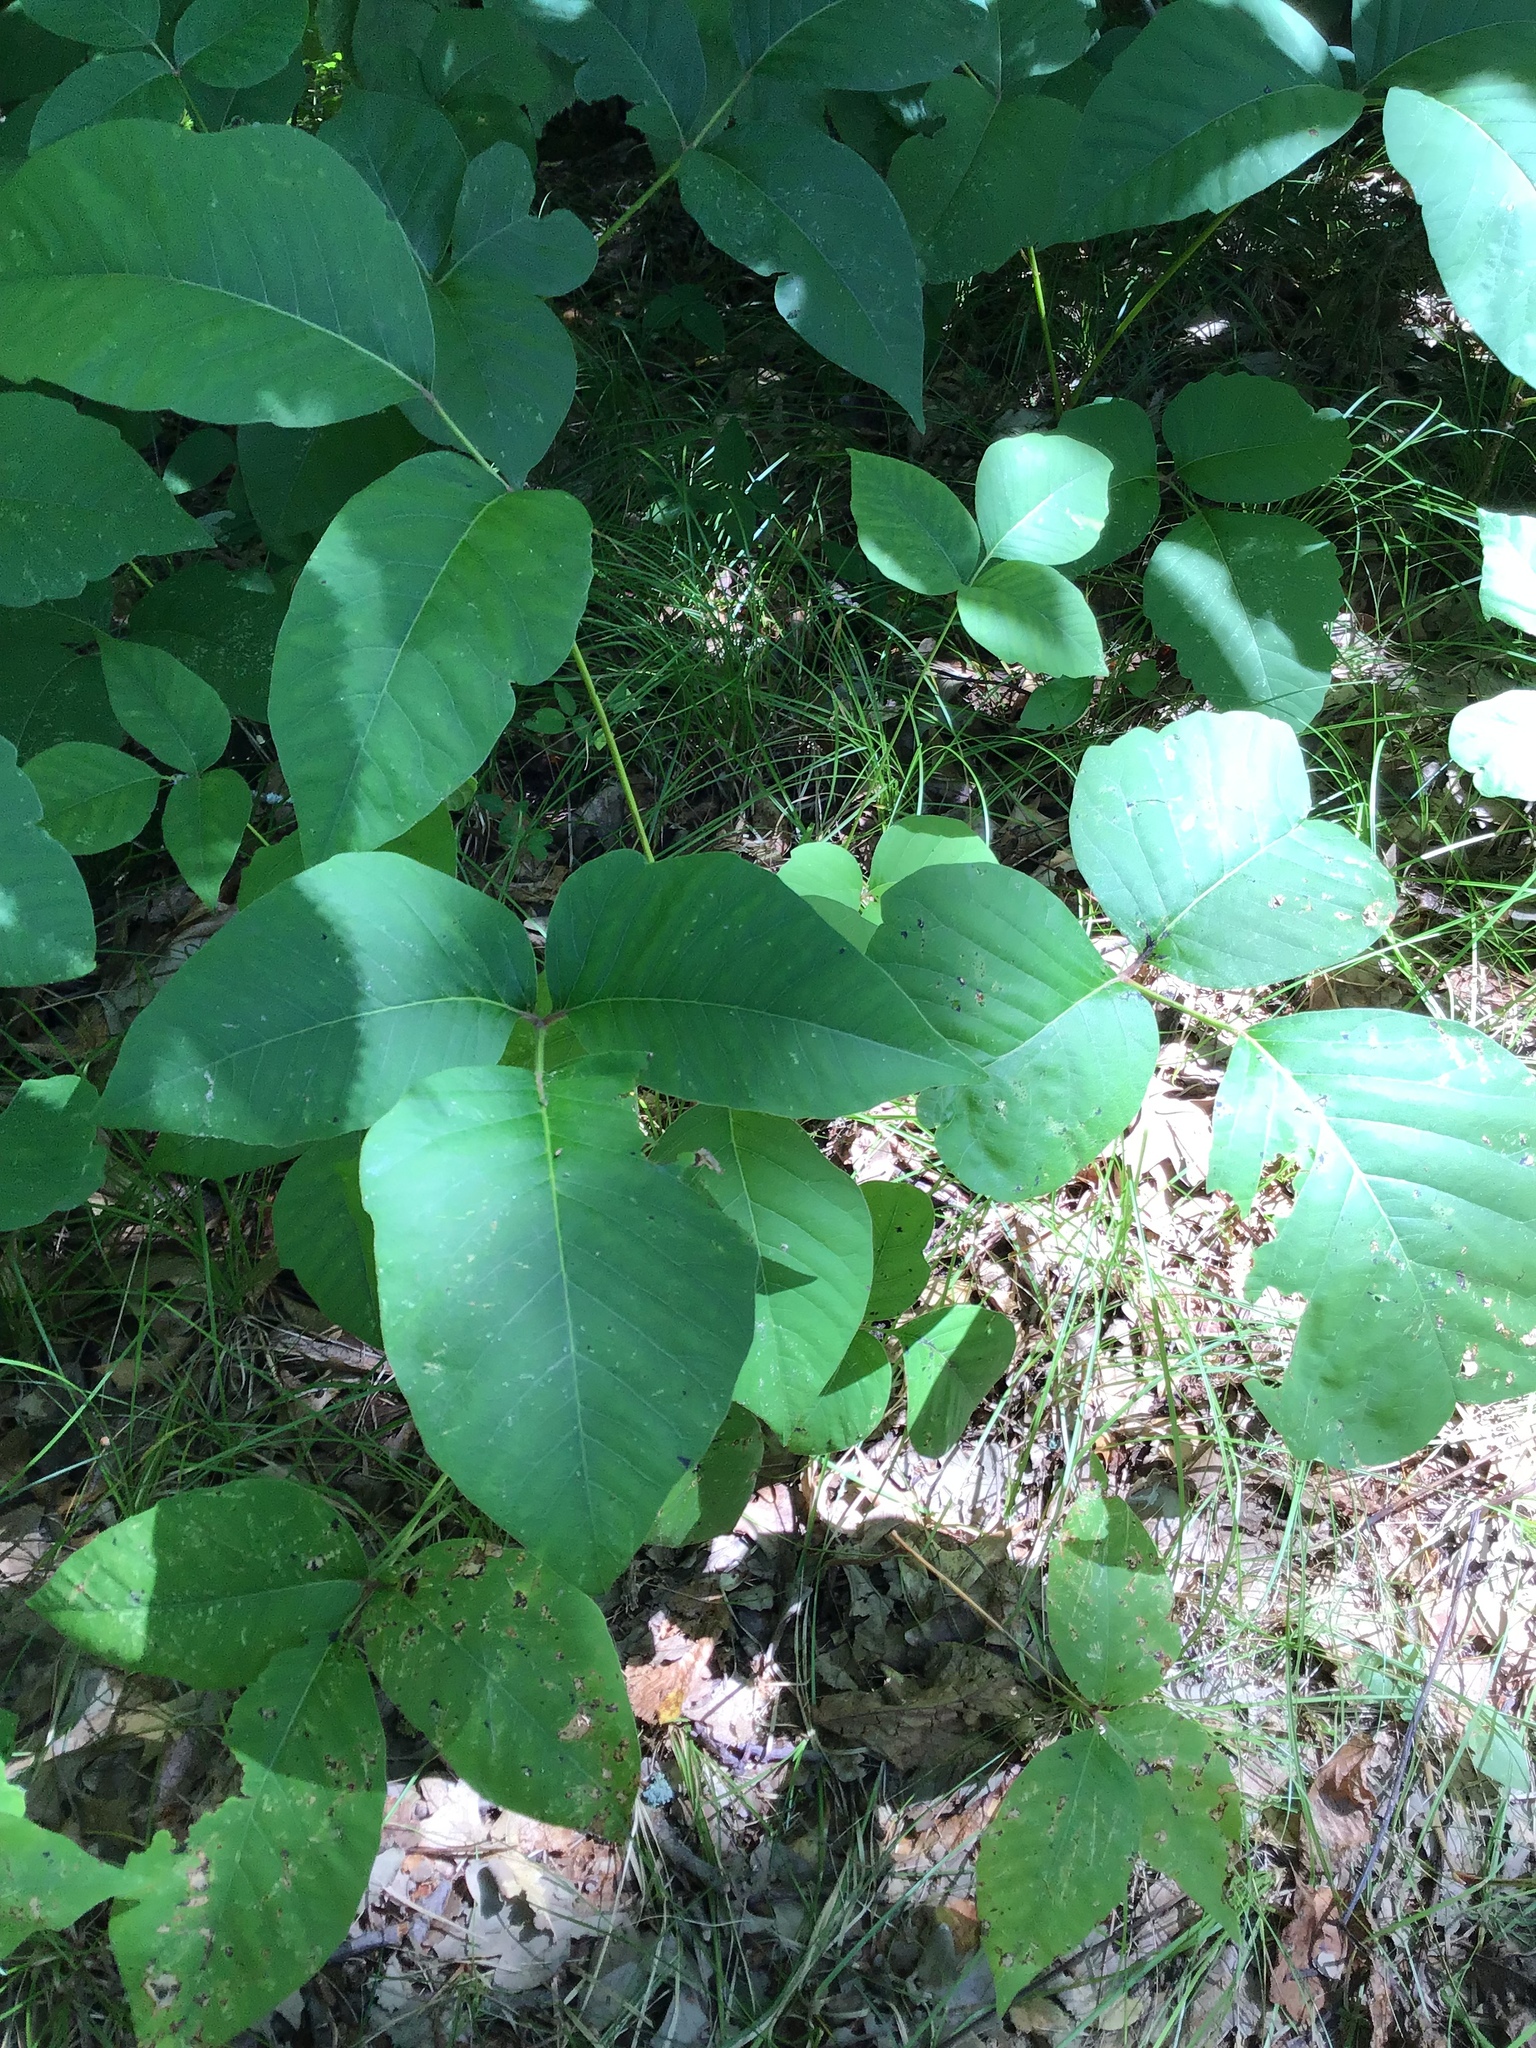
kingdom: Plantae
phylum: Tracheophyta
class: Magnoliopsida
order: Sapindales
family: Anacardiaceae
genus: Toxicodendron
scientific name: Toxicodendron rydbergii
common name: Rydberg's poison-ivy
